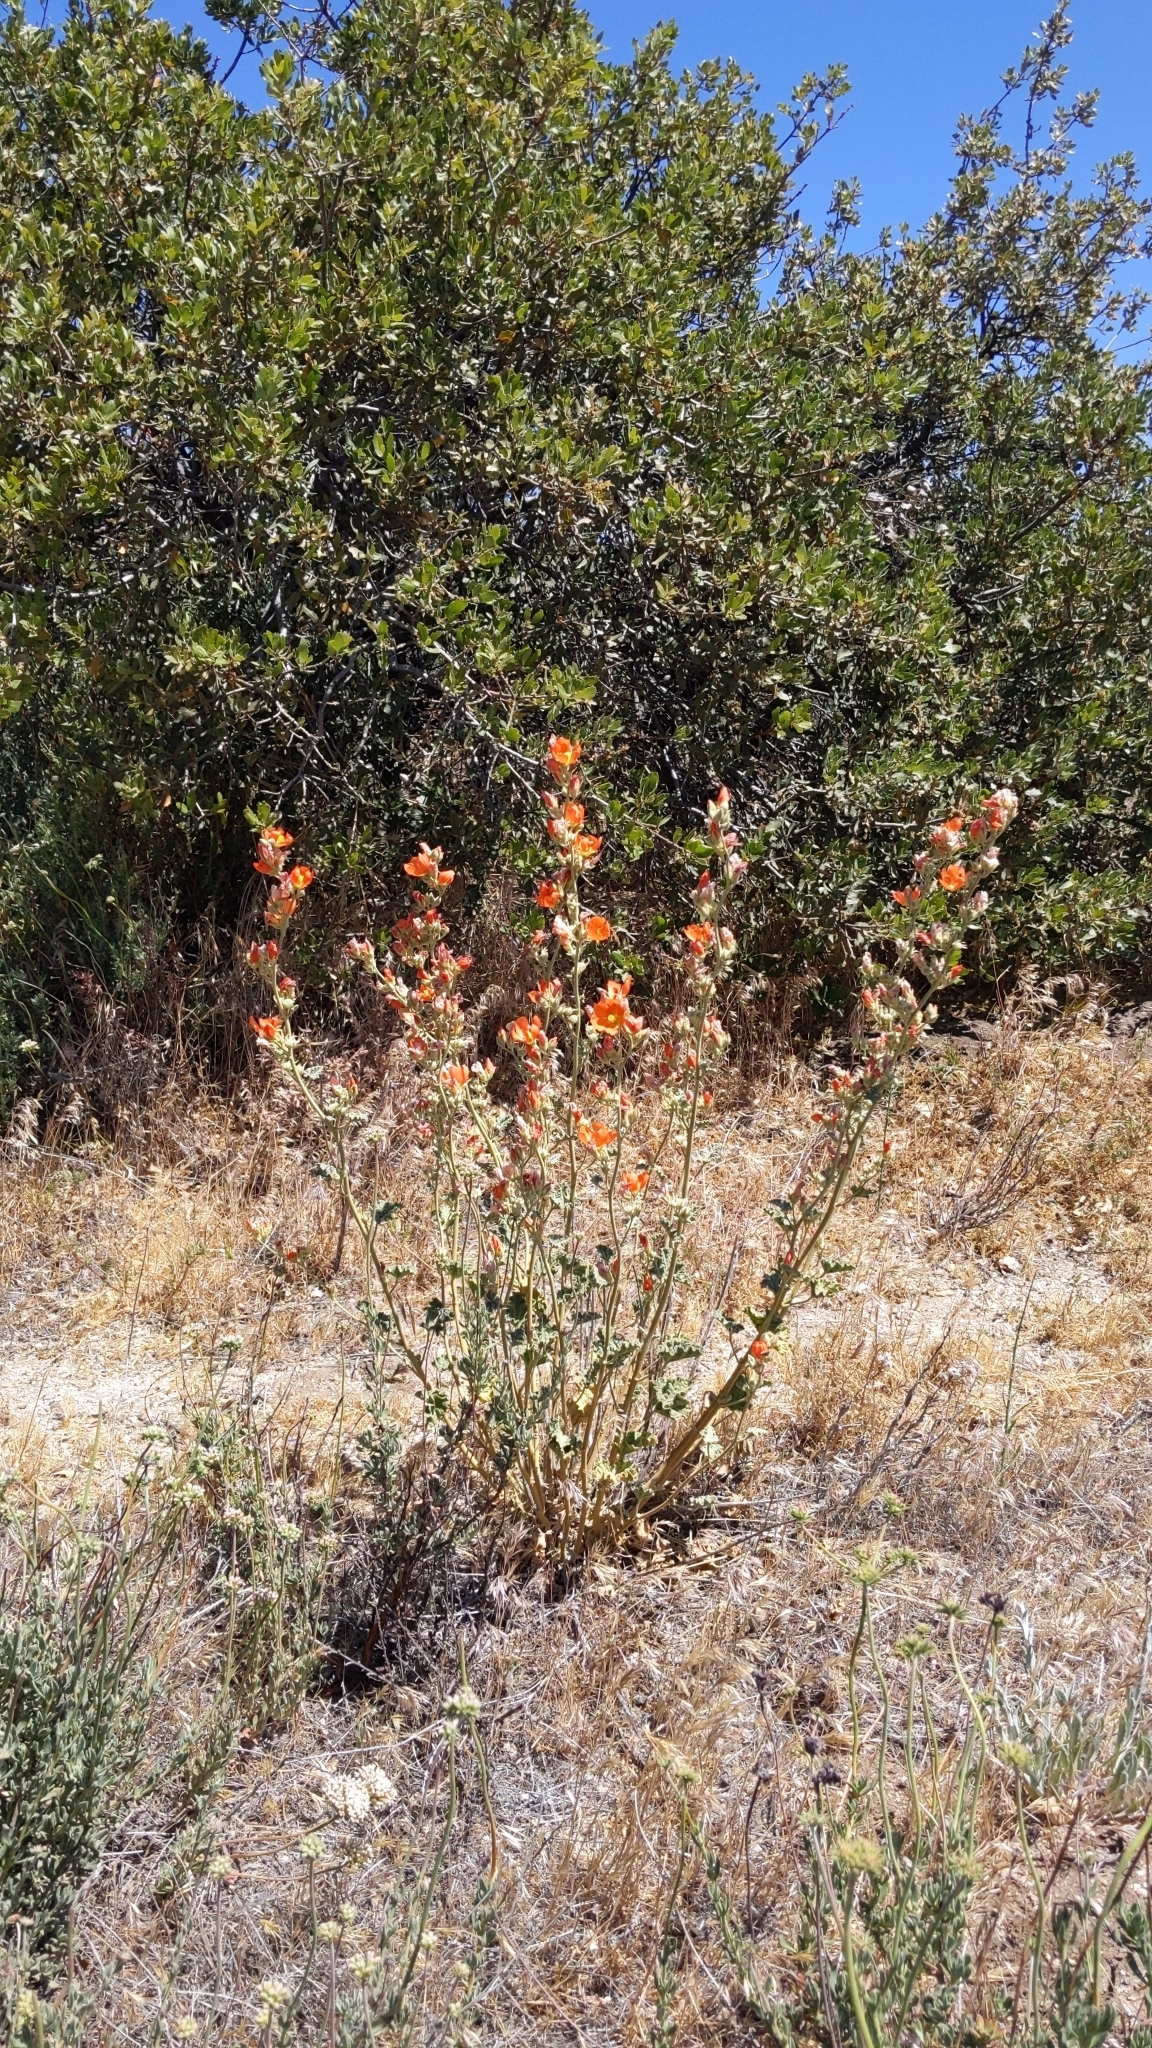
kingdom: Plantae
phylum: Tracheophyta
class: Magnoliopsida
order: Malvales
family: Malvaceae
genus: Sphaeralcea
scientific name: Sphaeralcea ambigua
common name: Apricot globe-mallow
